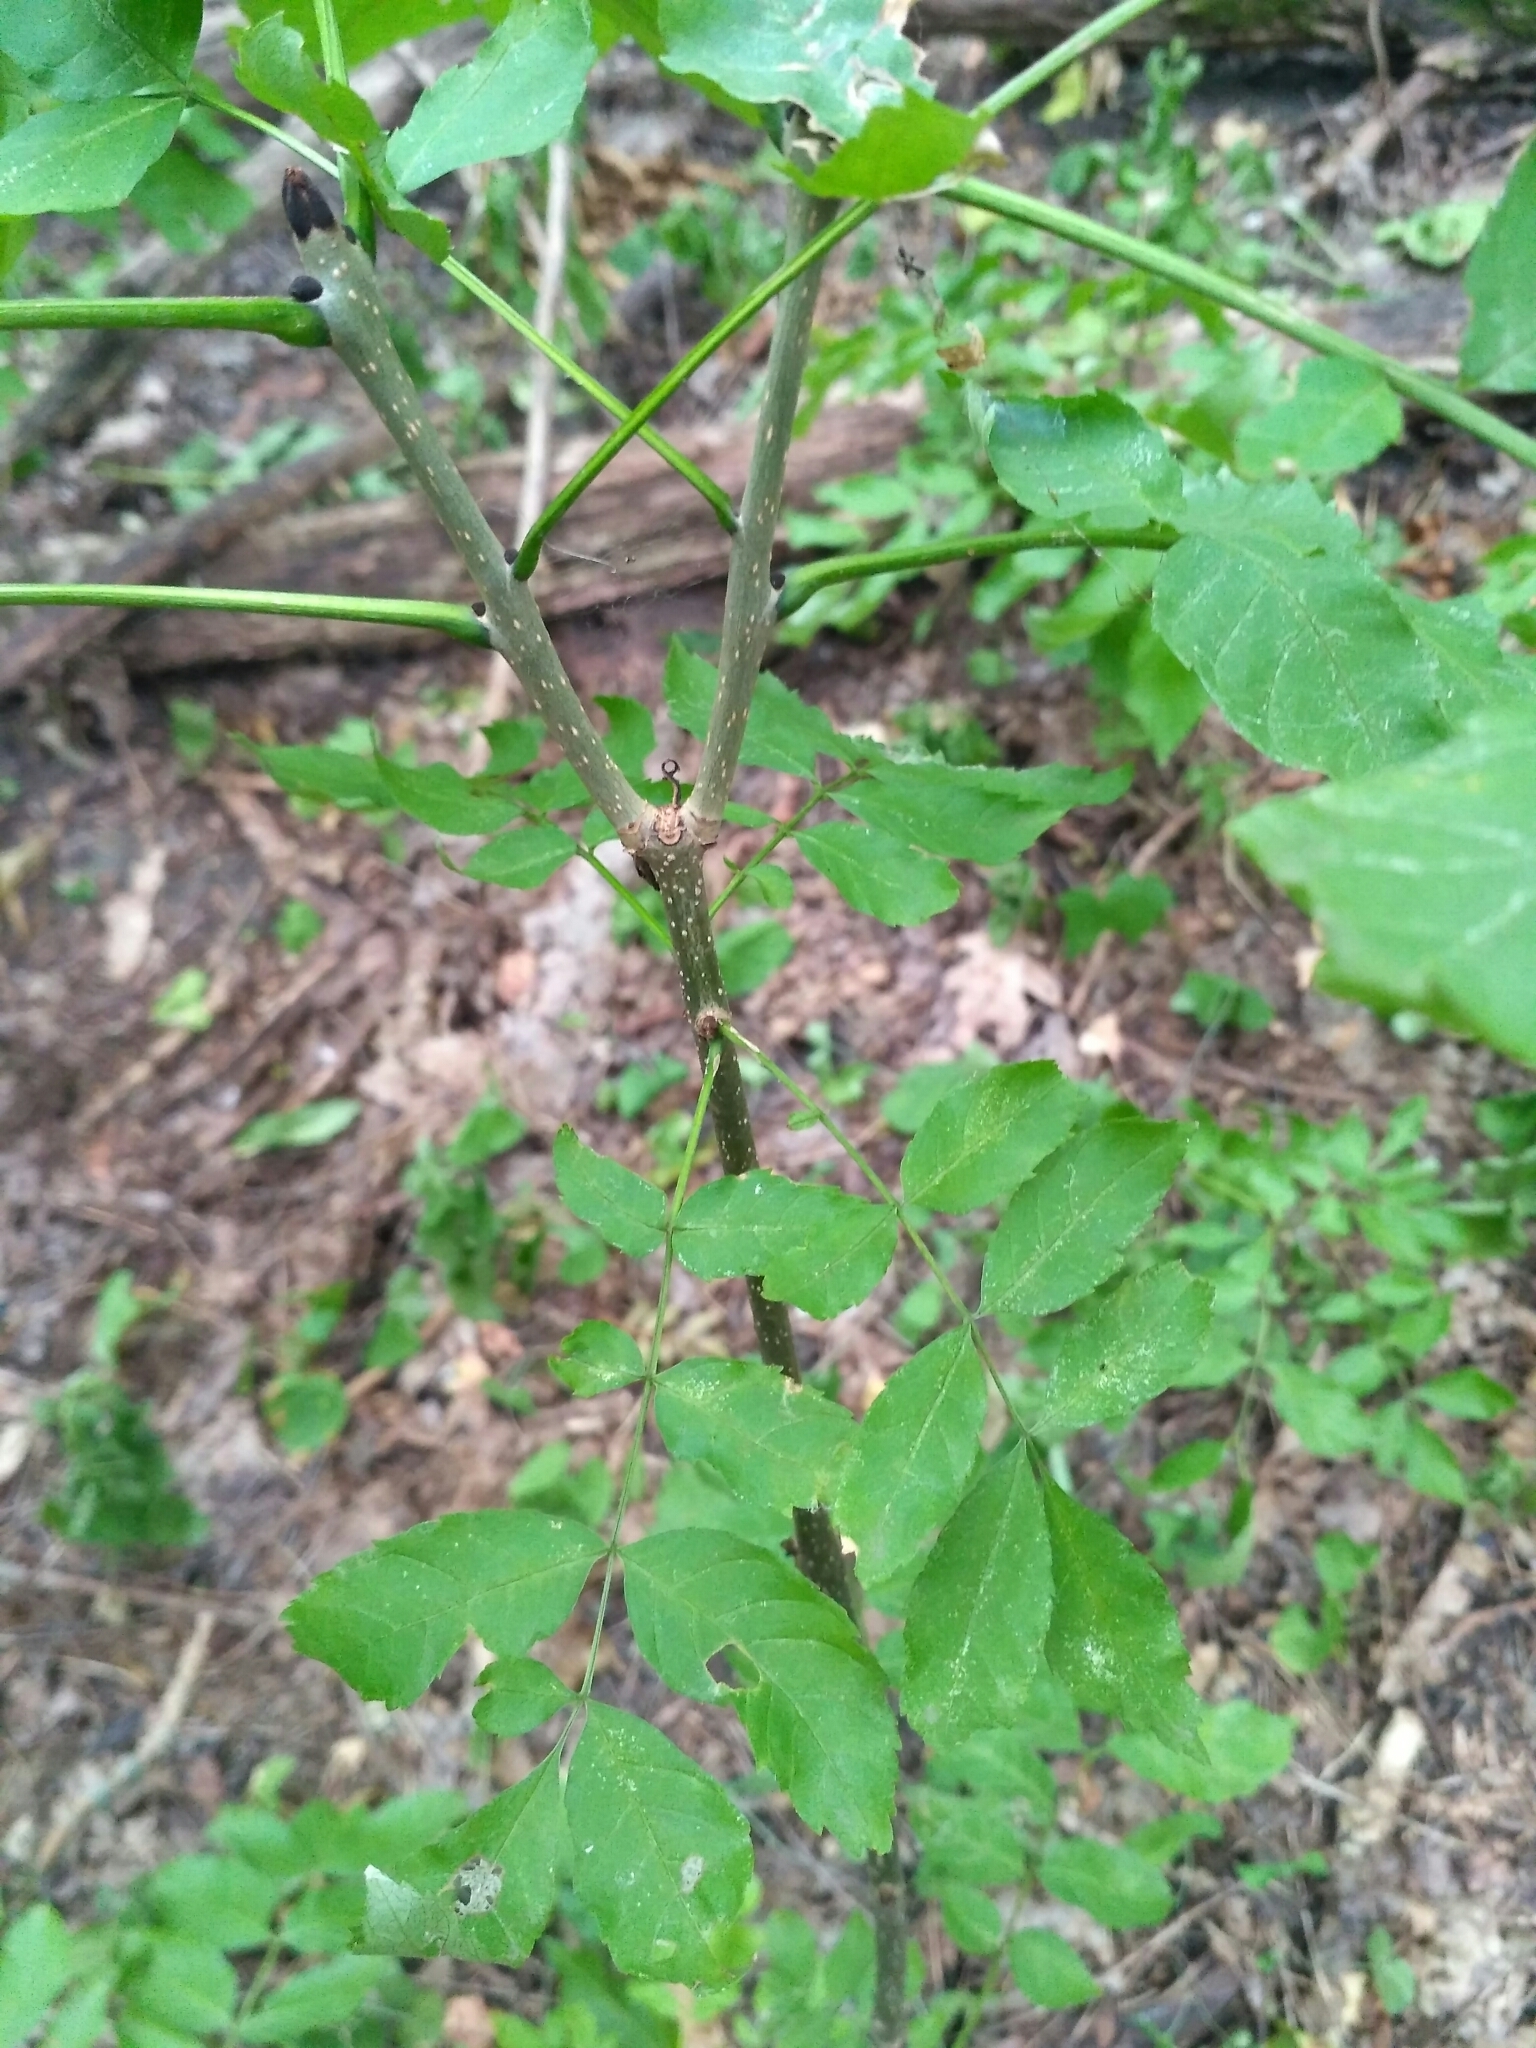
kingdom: Plantae
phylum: Tracheophyta
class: Magnoliopsida
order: Lamiales
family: Oleaceae
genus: Fraxinus
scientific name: Fraxinus excelsior
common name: European ash
